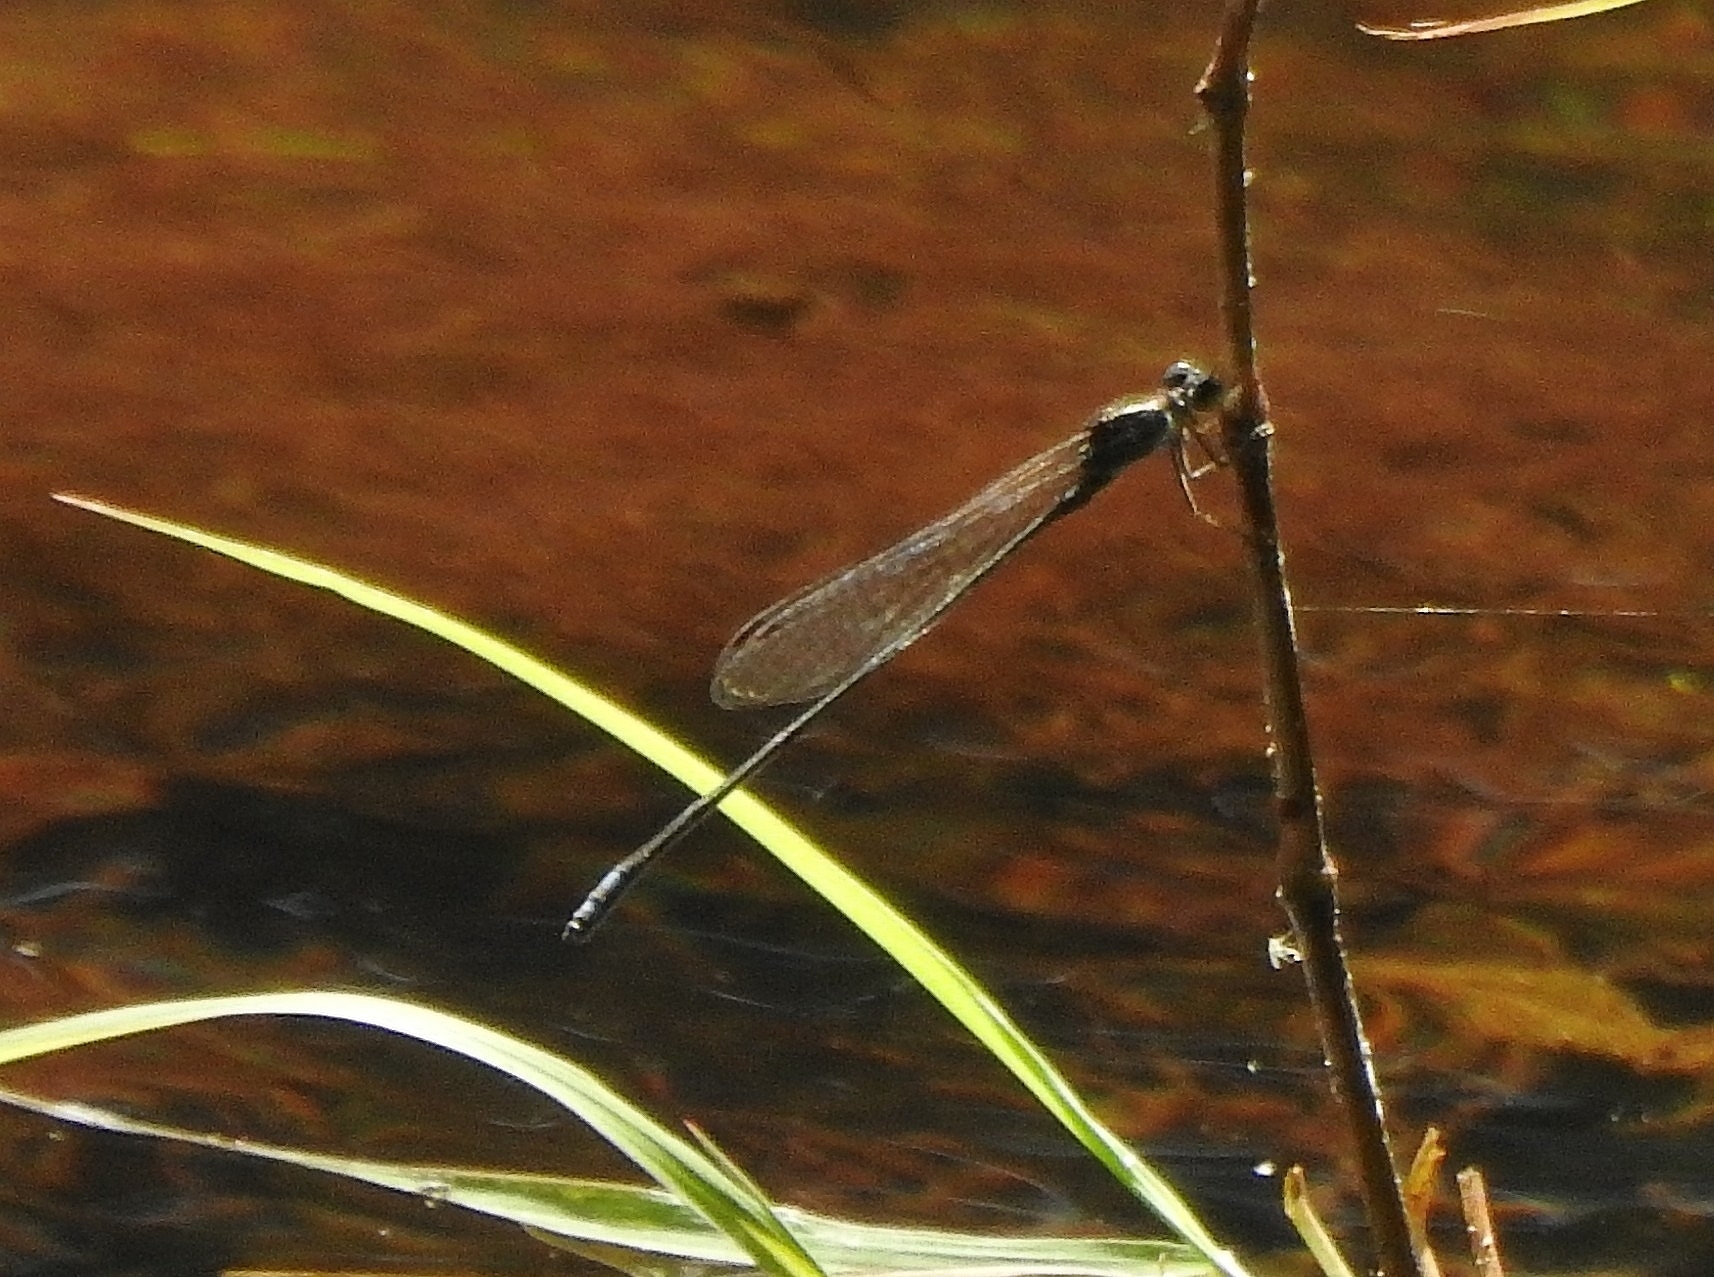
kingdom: Animalia
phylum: Arthropoda
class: Insecta
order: Odonata
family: Coenagrionidae
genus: Pseudagrion
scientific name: Pseudagrion indicum
